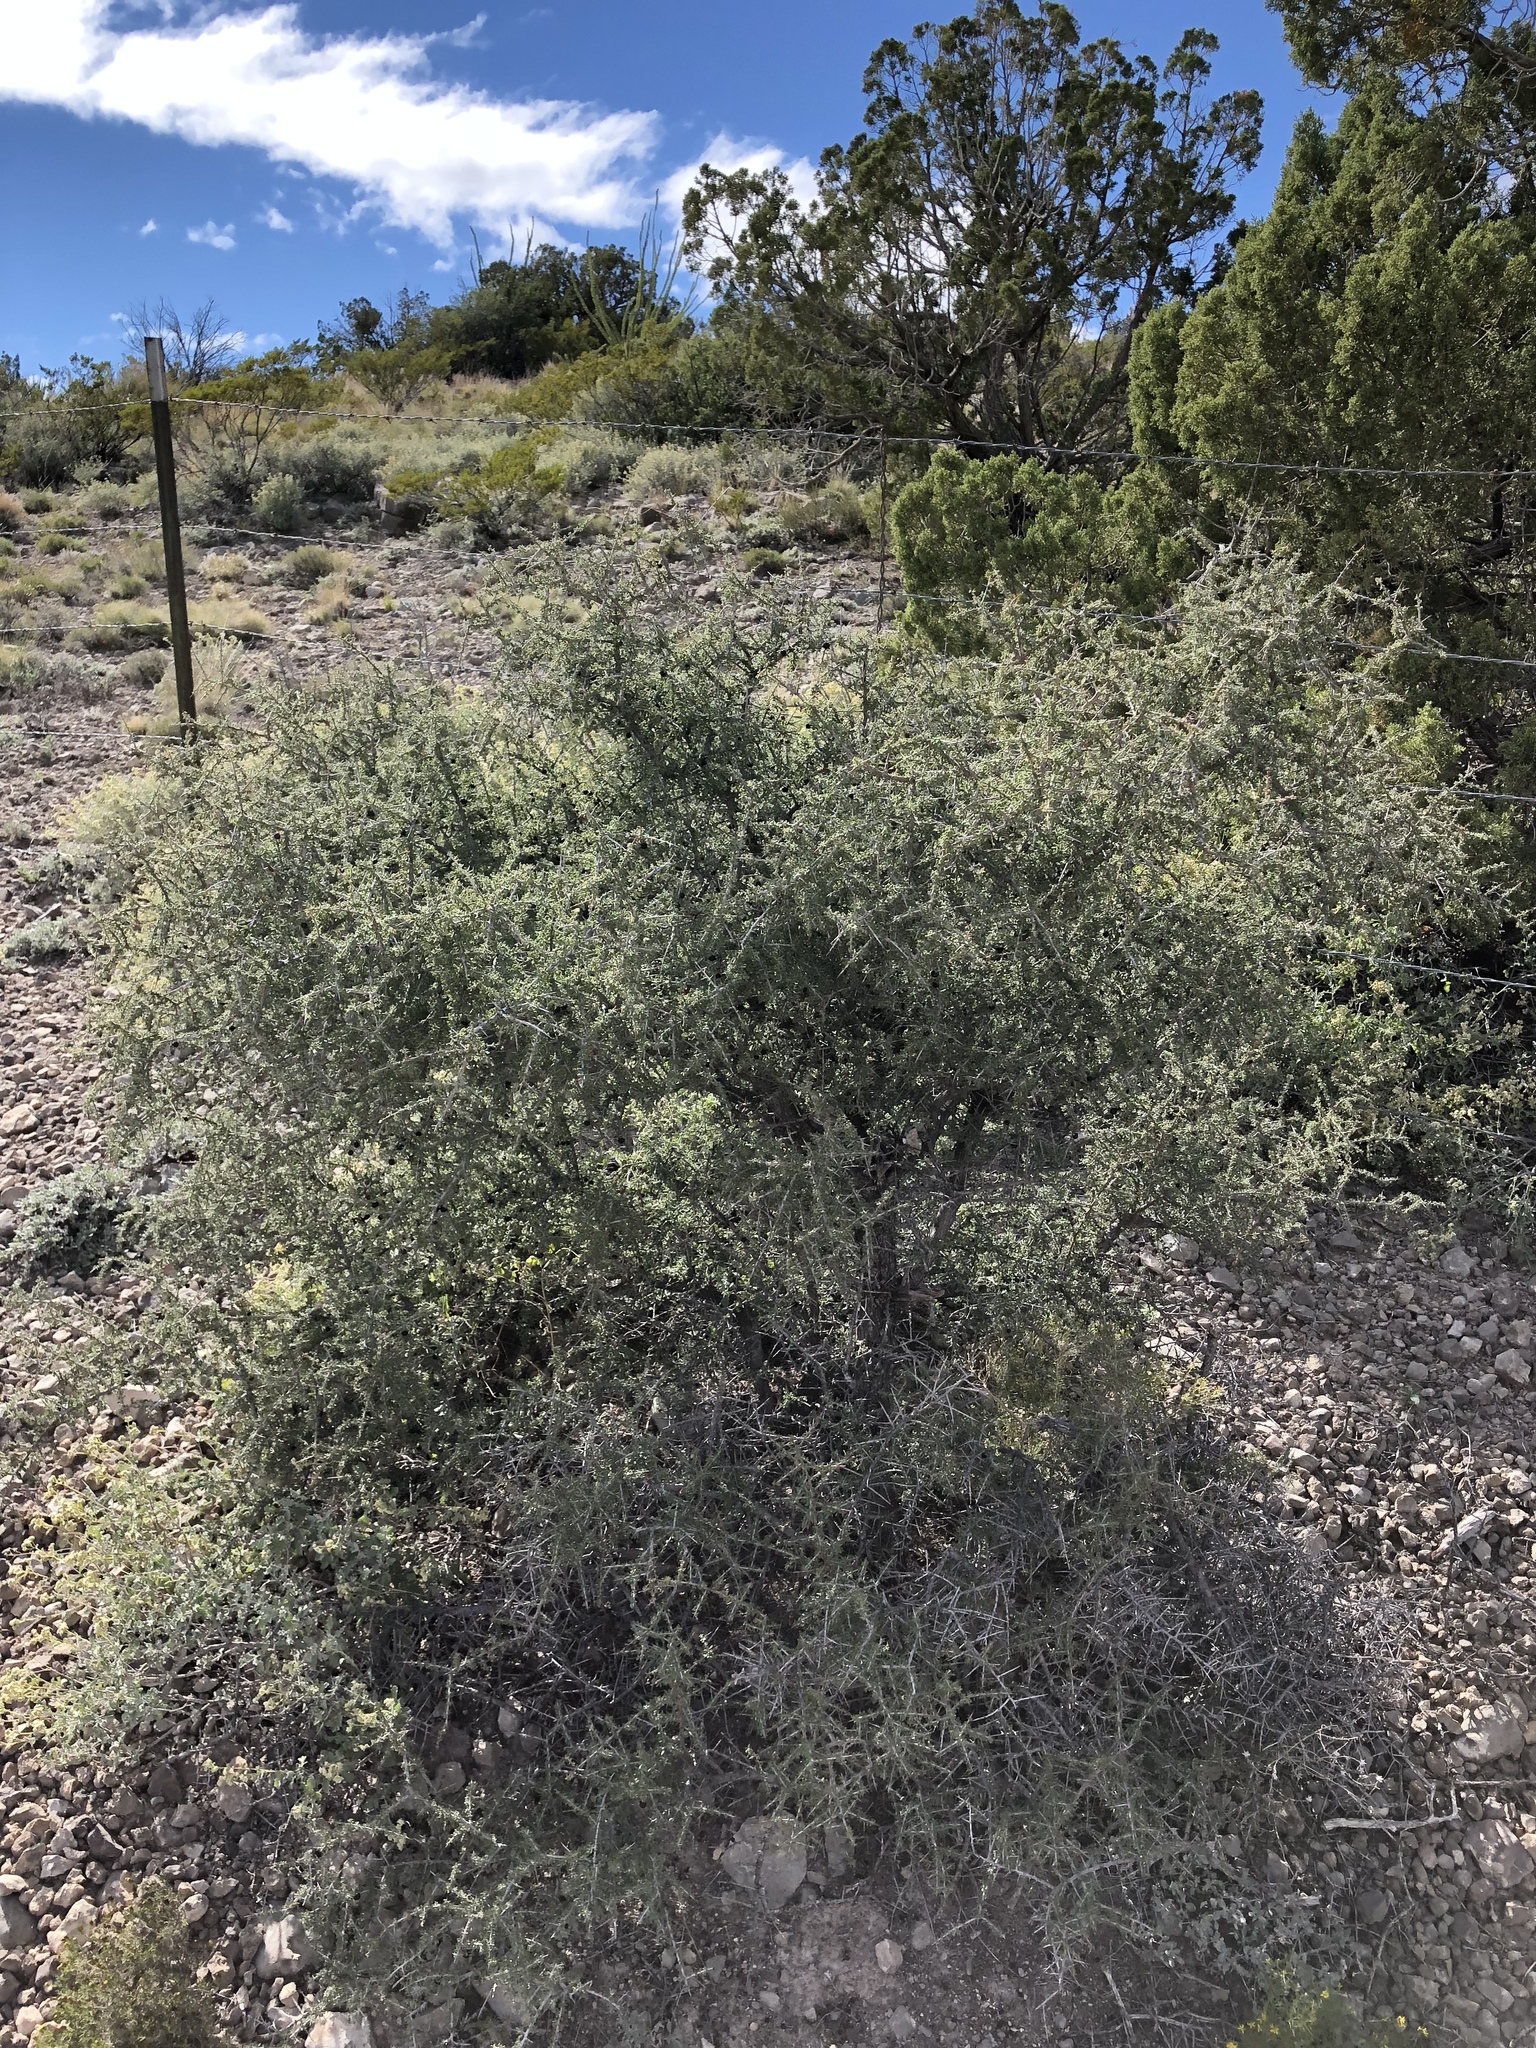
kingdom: Plantae
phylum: Tracheophyta
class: Magnoliopsida
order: Rosales
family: Rhamnaceae
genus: Condalia
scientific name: Condalia warnockii
